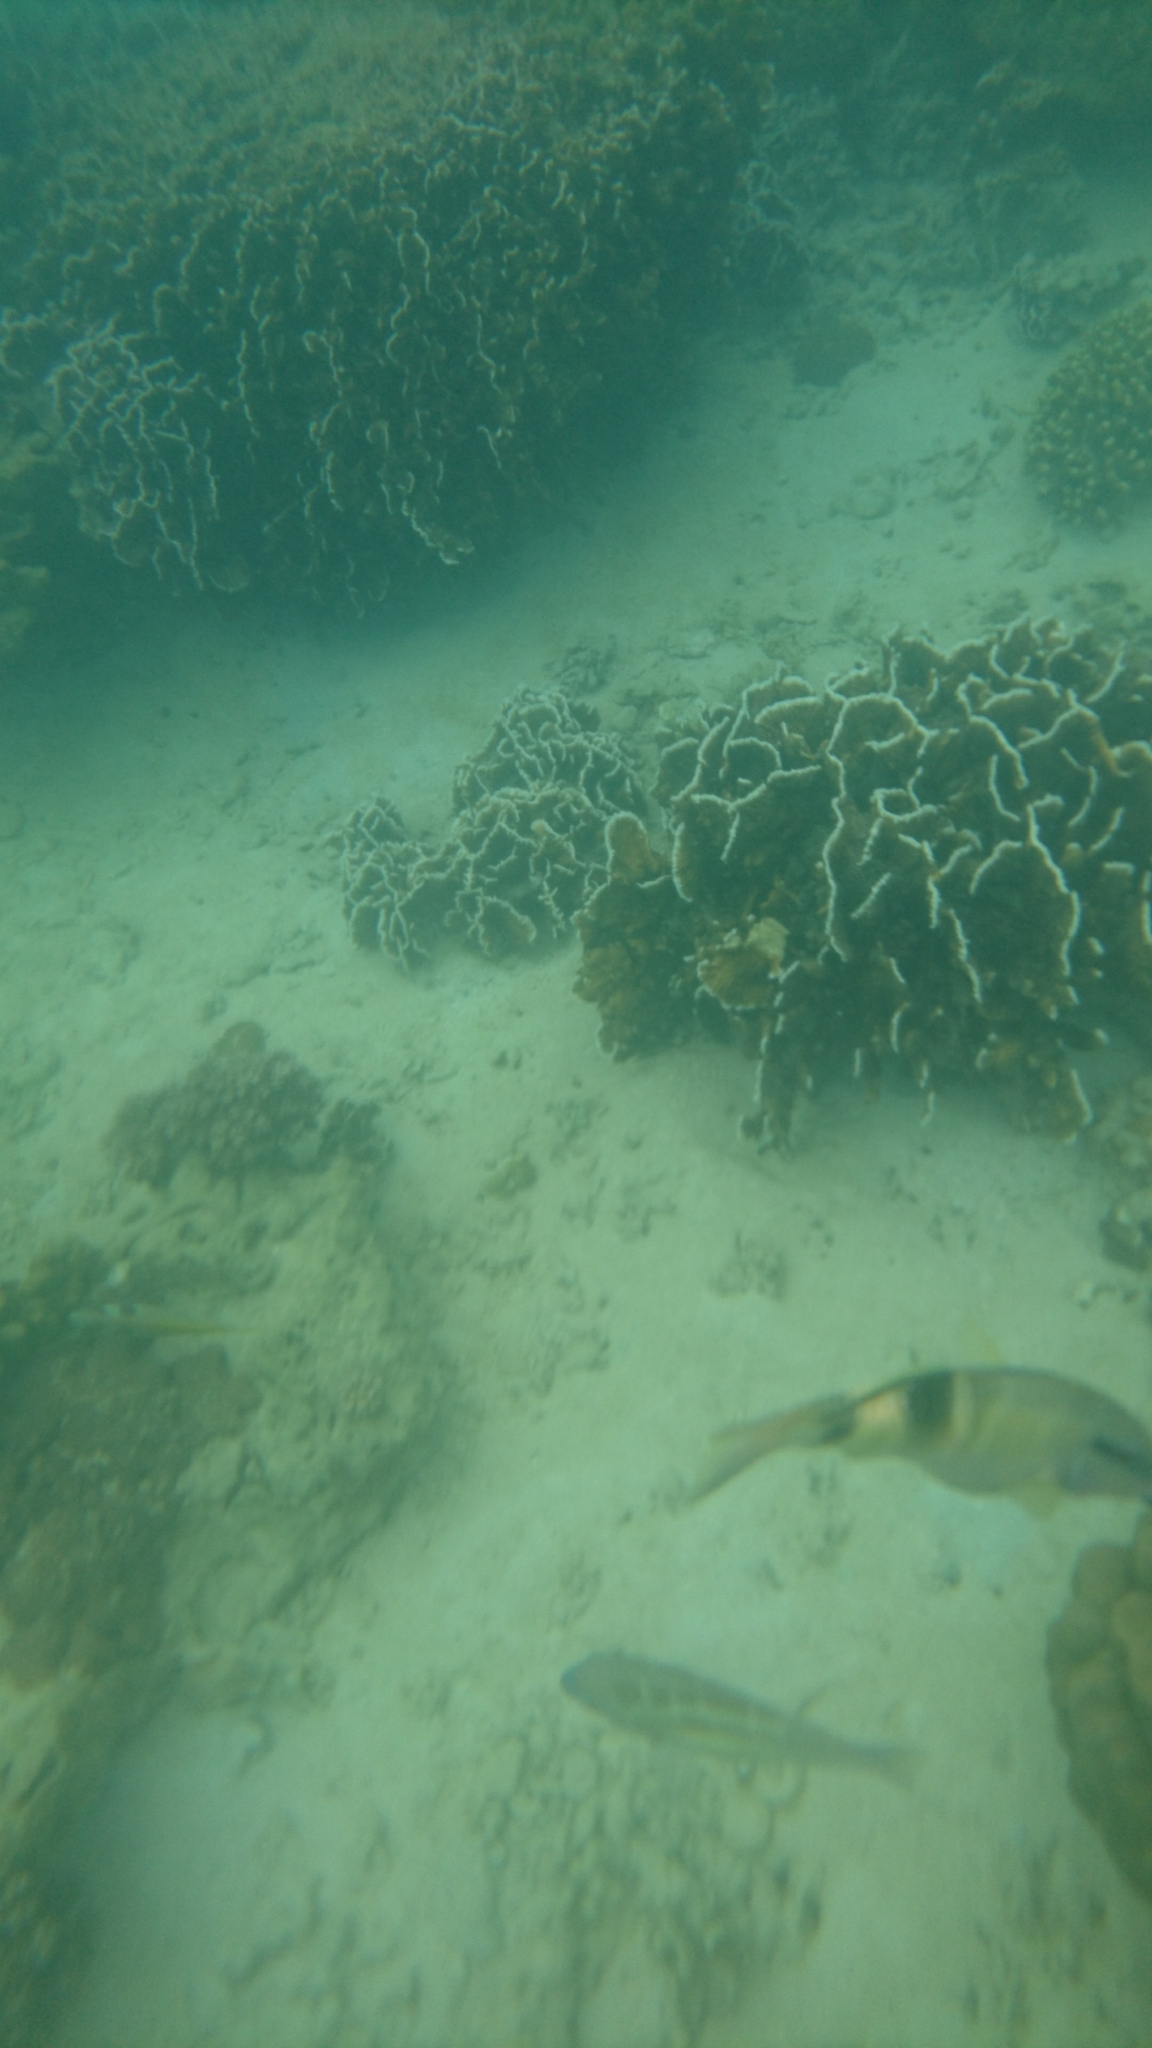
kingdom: Animalia
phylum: Chordata
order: Perciformes
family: Mullidae
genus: Parupeneus
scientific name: Parupeneus multifasciatus
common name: Manybar goatfish
